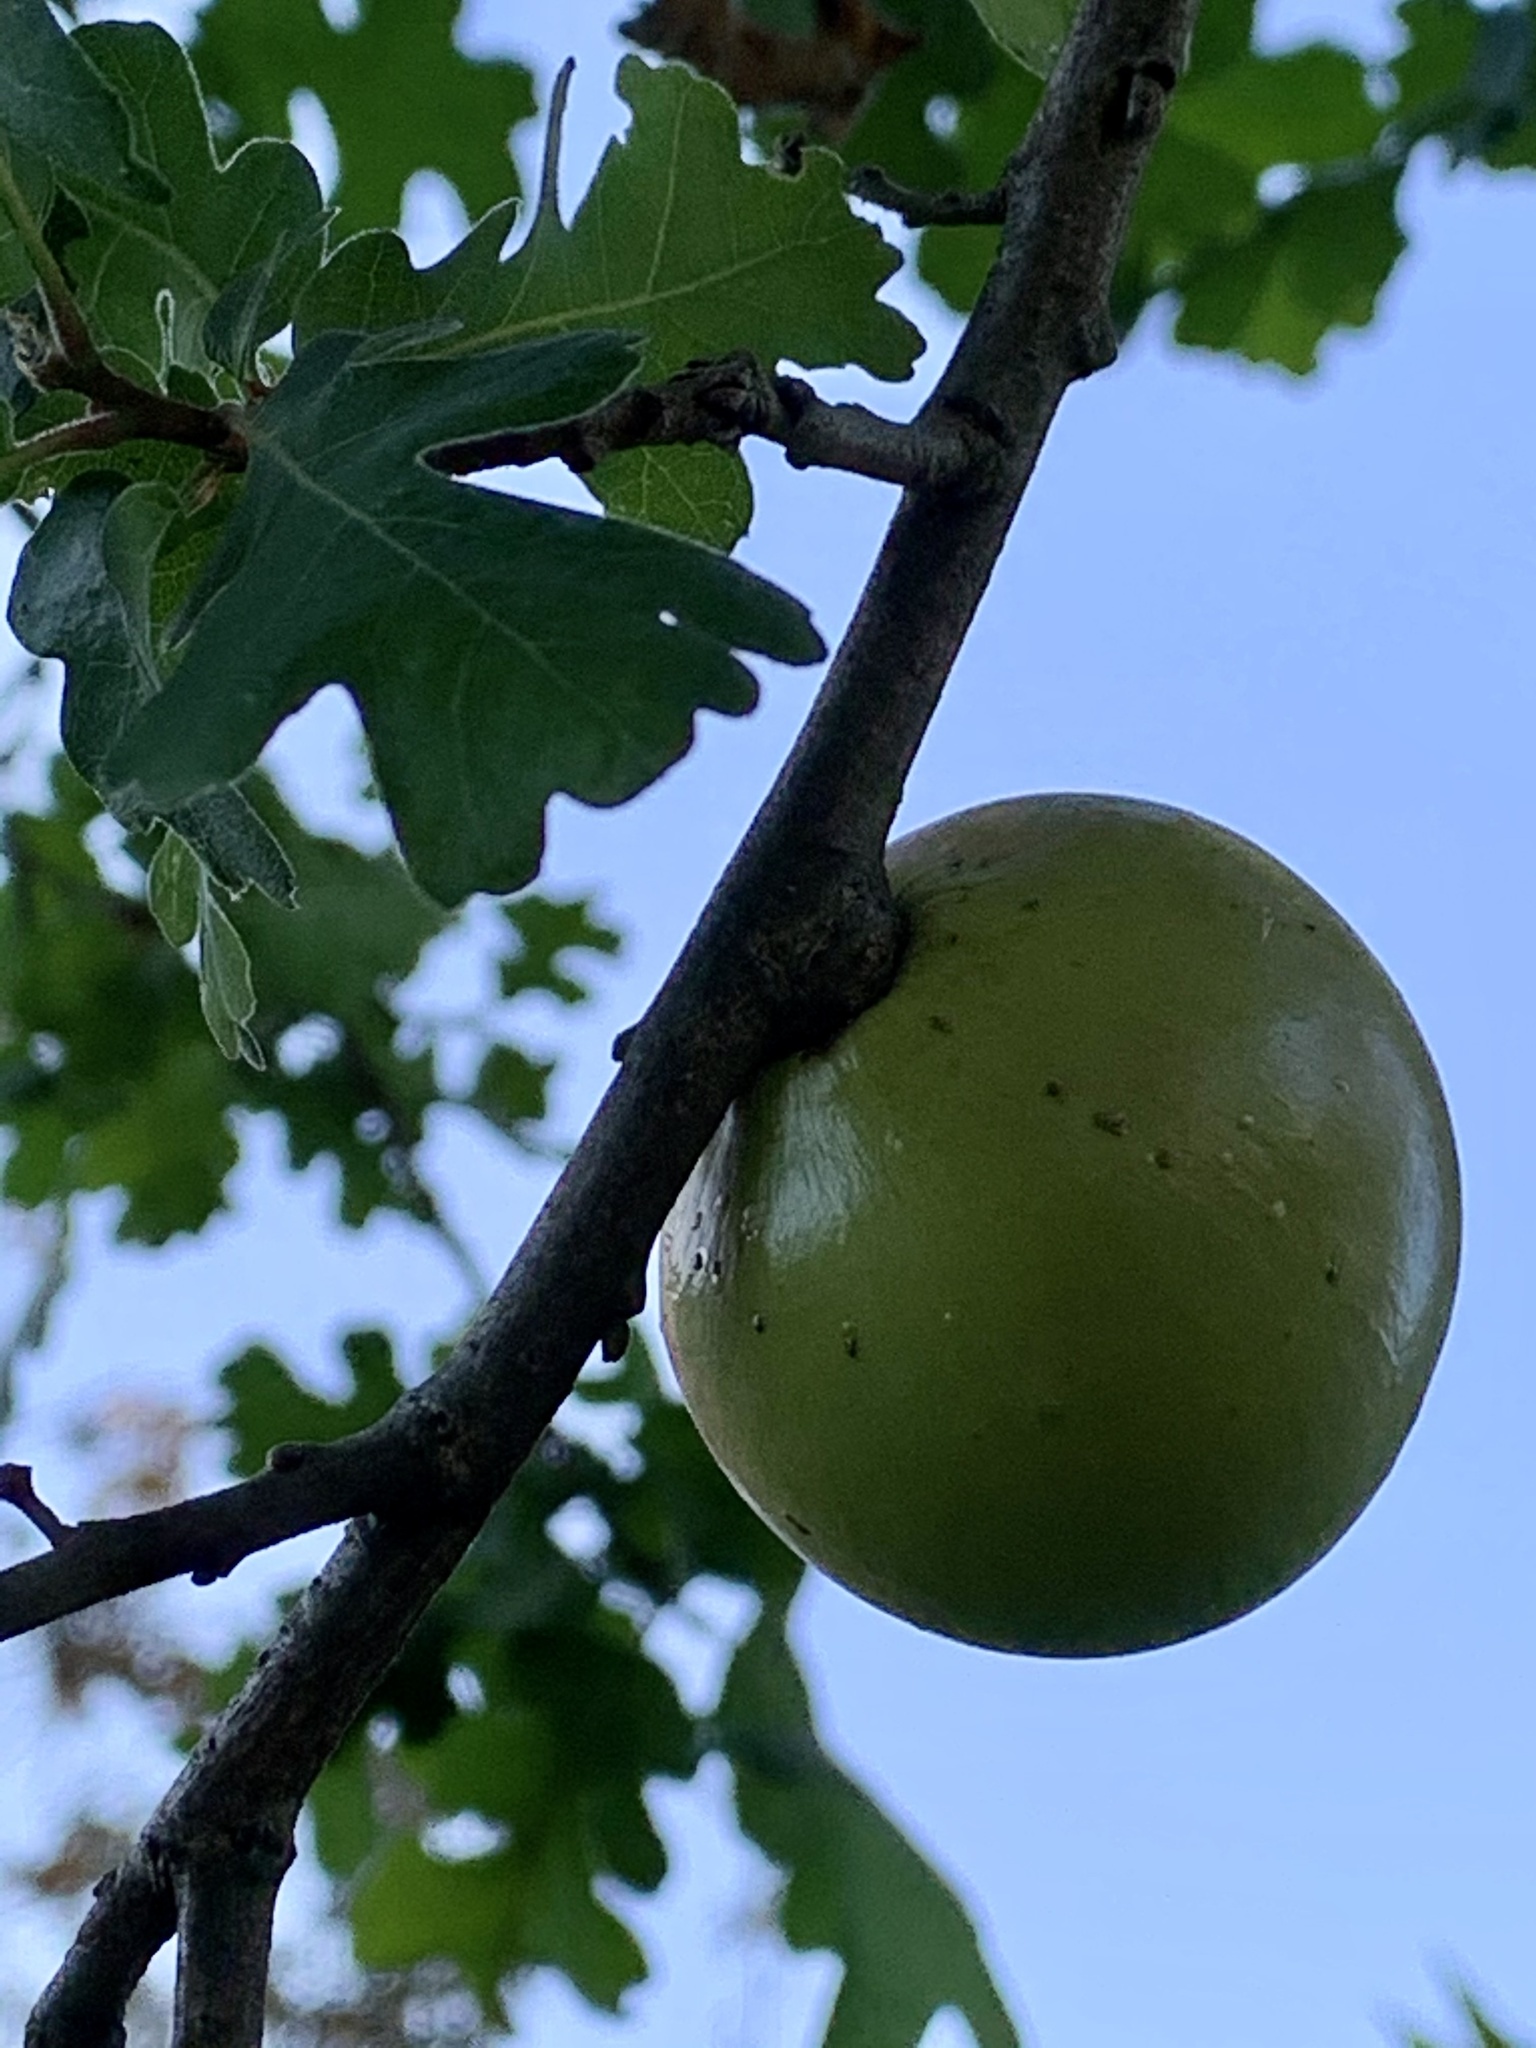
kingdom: Animalia
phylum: Arthropoda
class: Insecta
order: Hymenoptera
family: Cynipidae
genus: Andricus
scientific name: Andricus quercuscalifornicus
